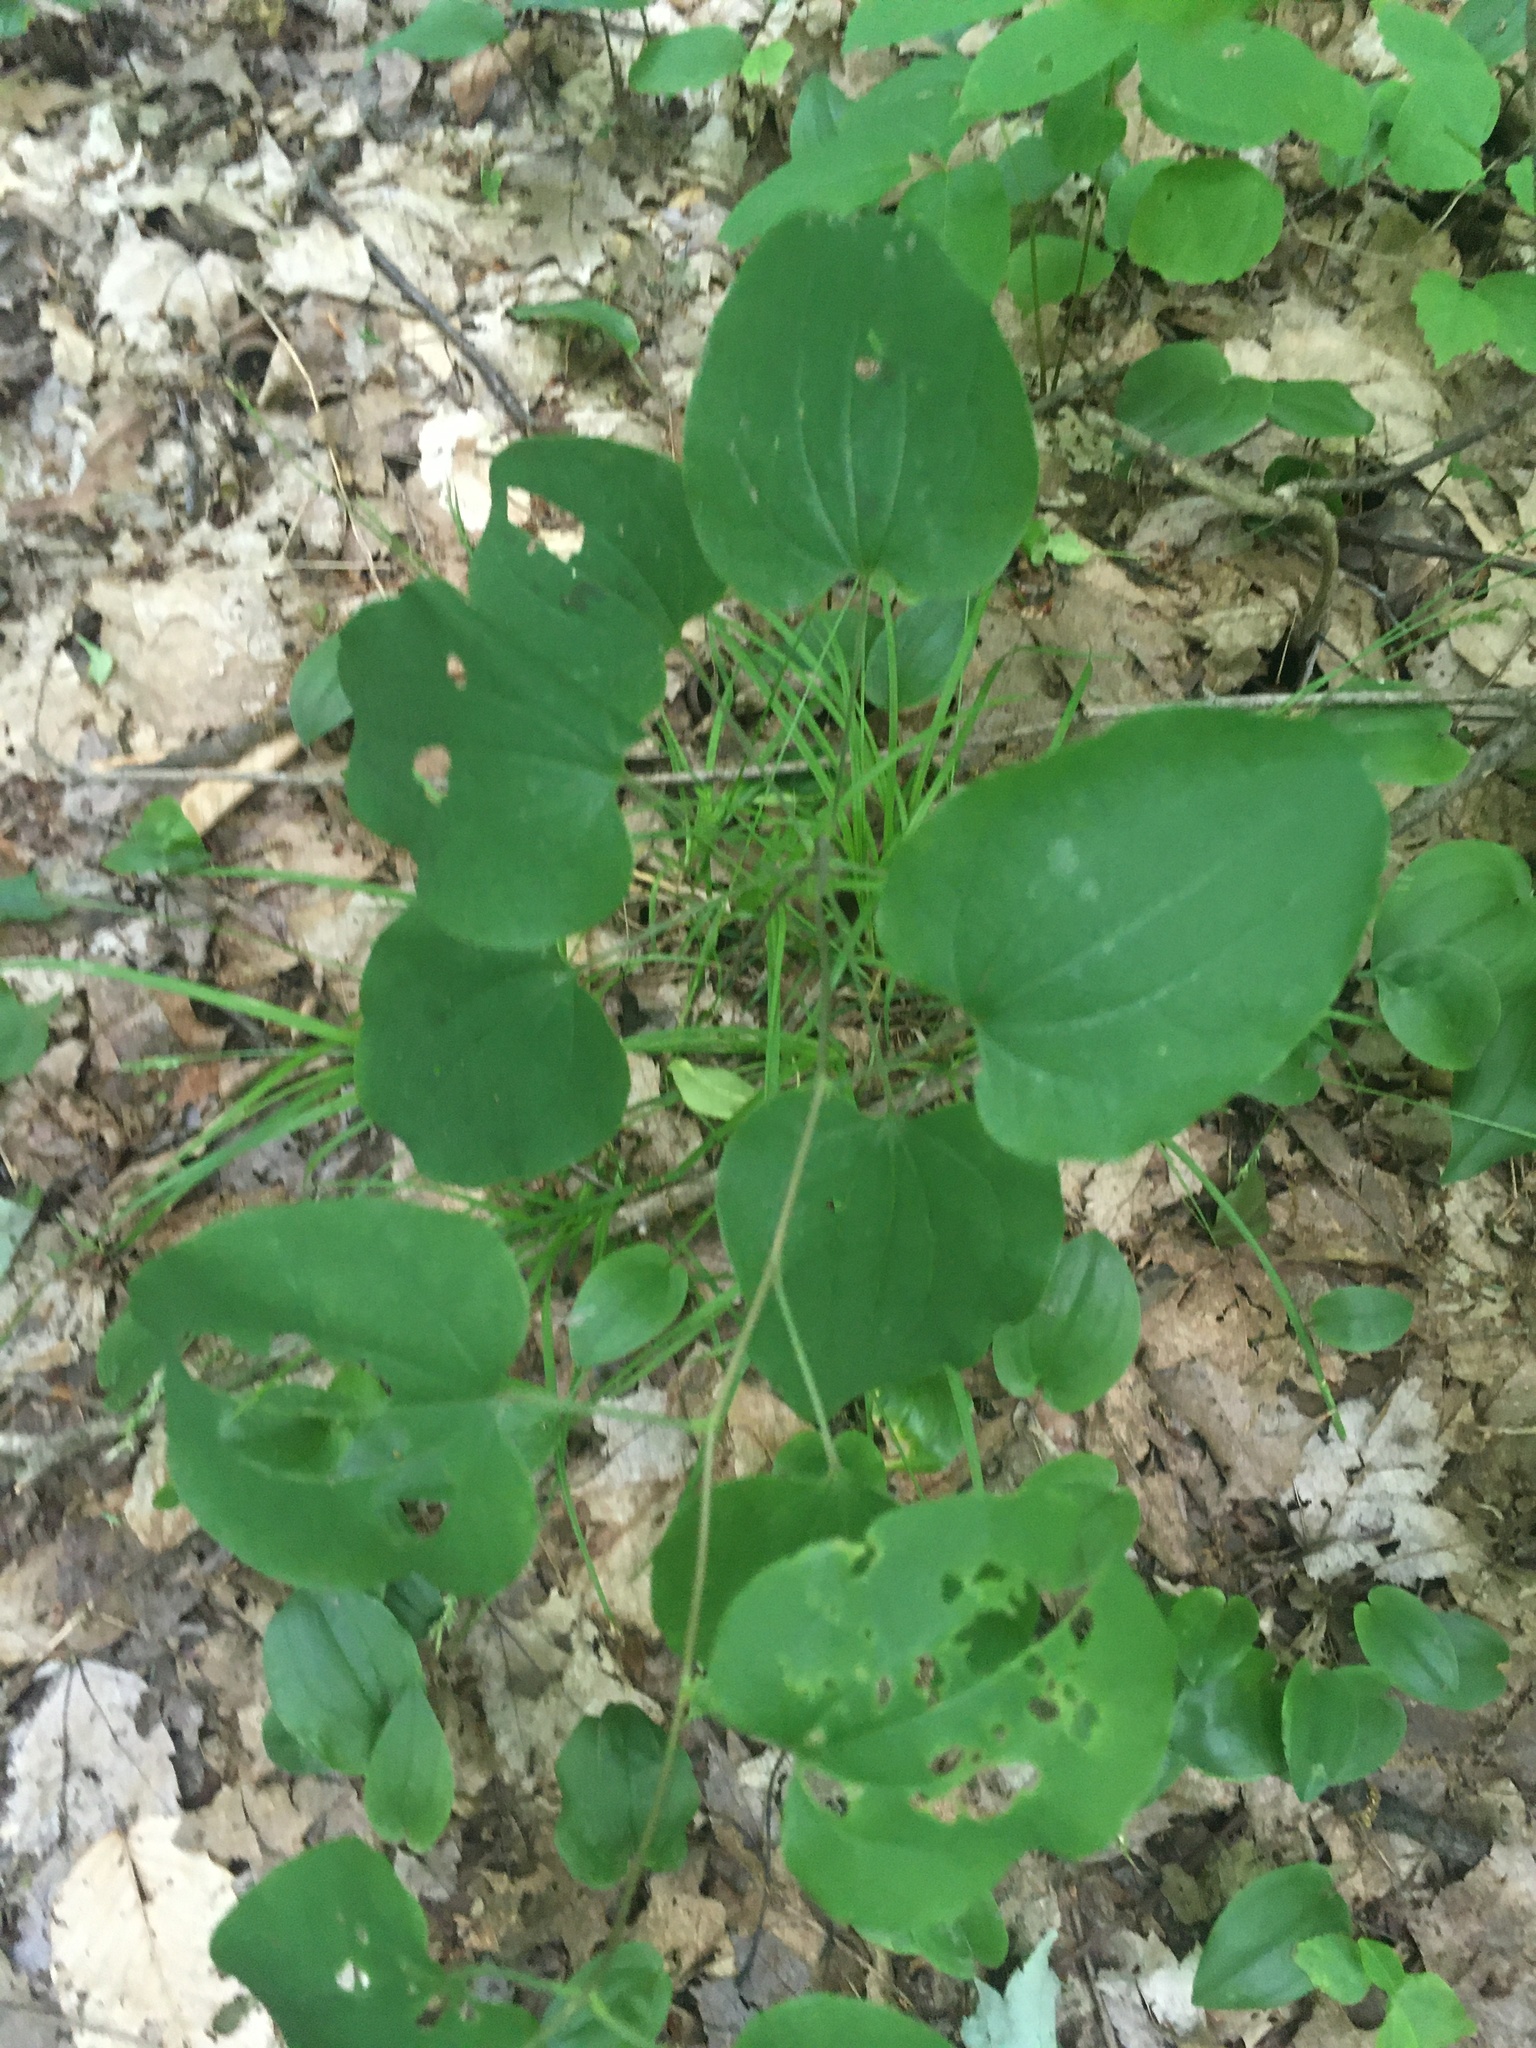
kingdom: Plantae
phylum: Tracheophyta
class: Liliopsida
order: Liliales
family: Smilacaceae
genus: Smilax
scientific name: Smilax herbacea
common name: Jacob's-ladder
